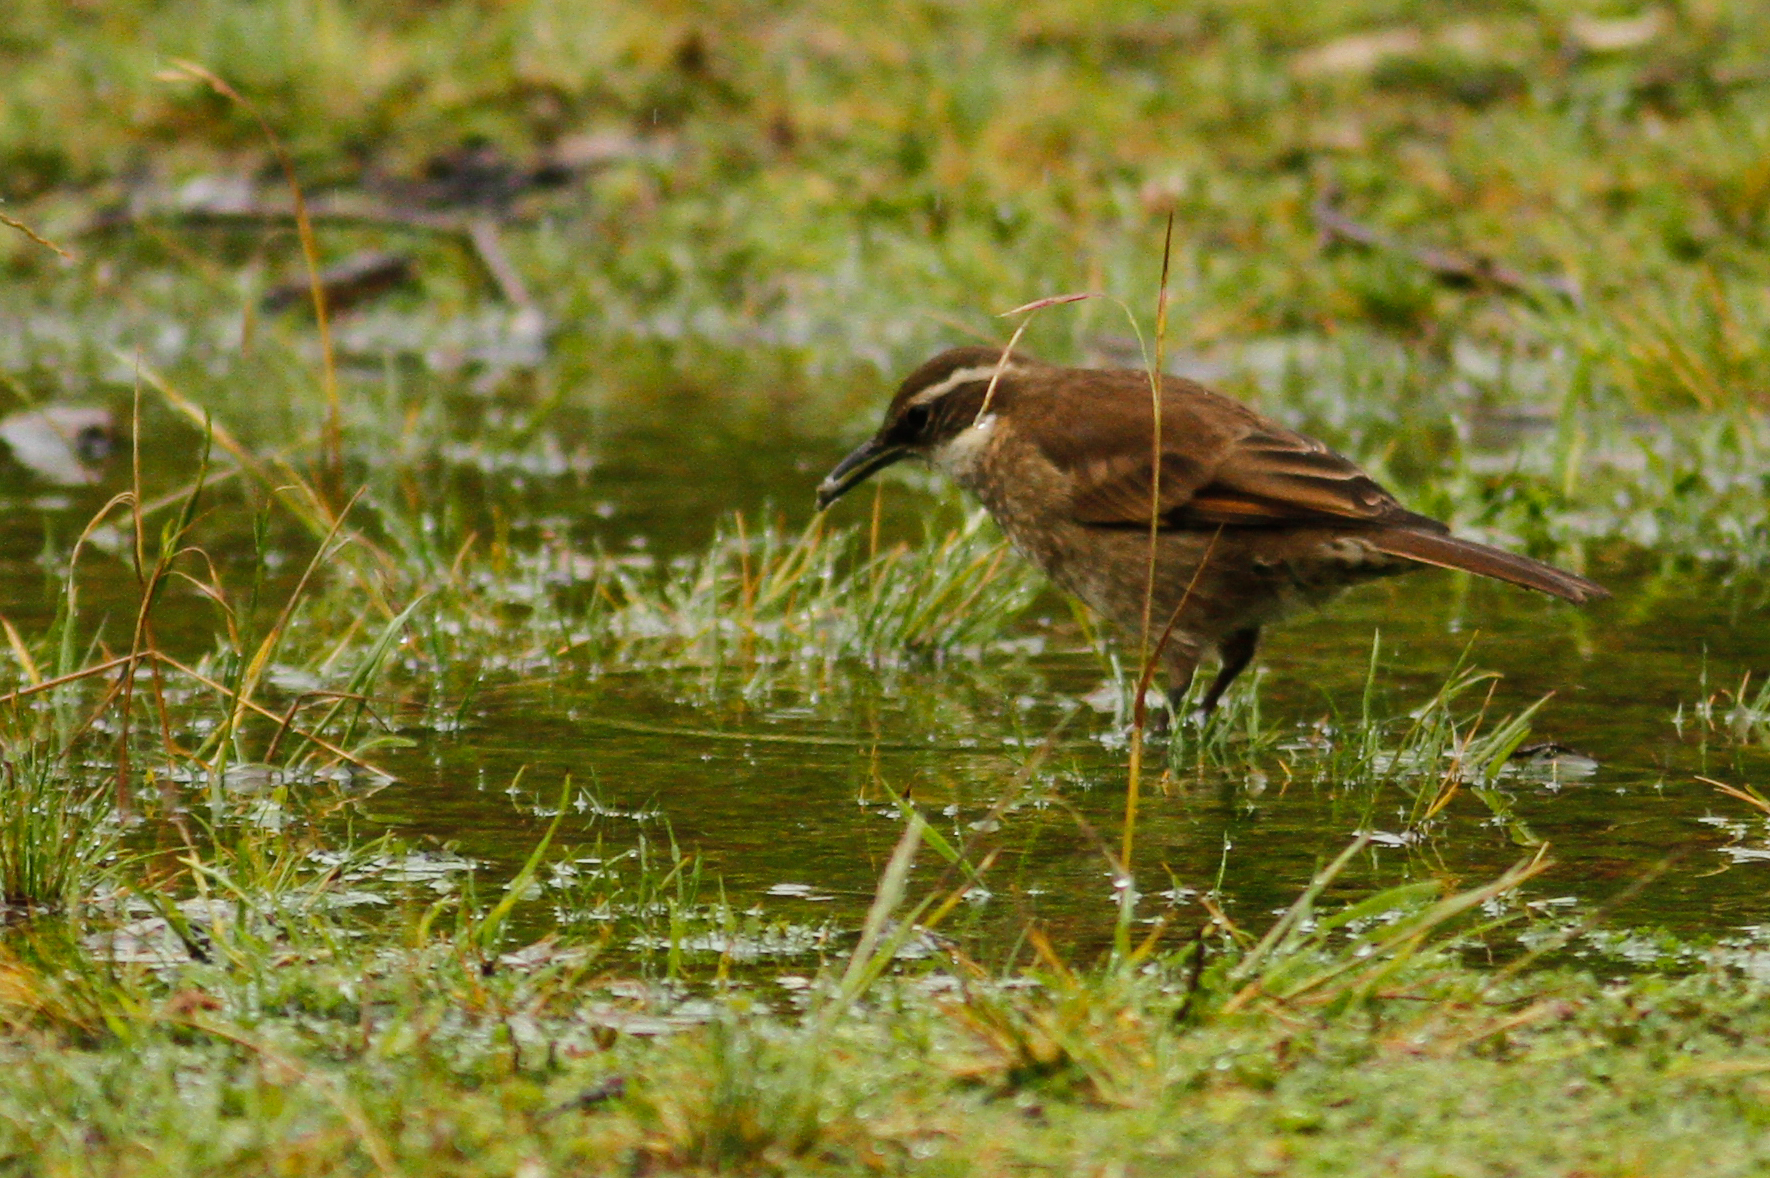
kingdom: Animalia
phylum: Chordata
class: Aves
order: Passeriformes
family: Furnariidae
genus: Cinclodes
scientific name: Cinclodes excelsior
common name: Stout-billed cinclodes
